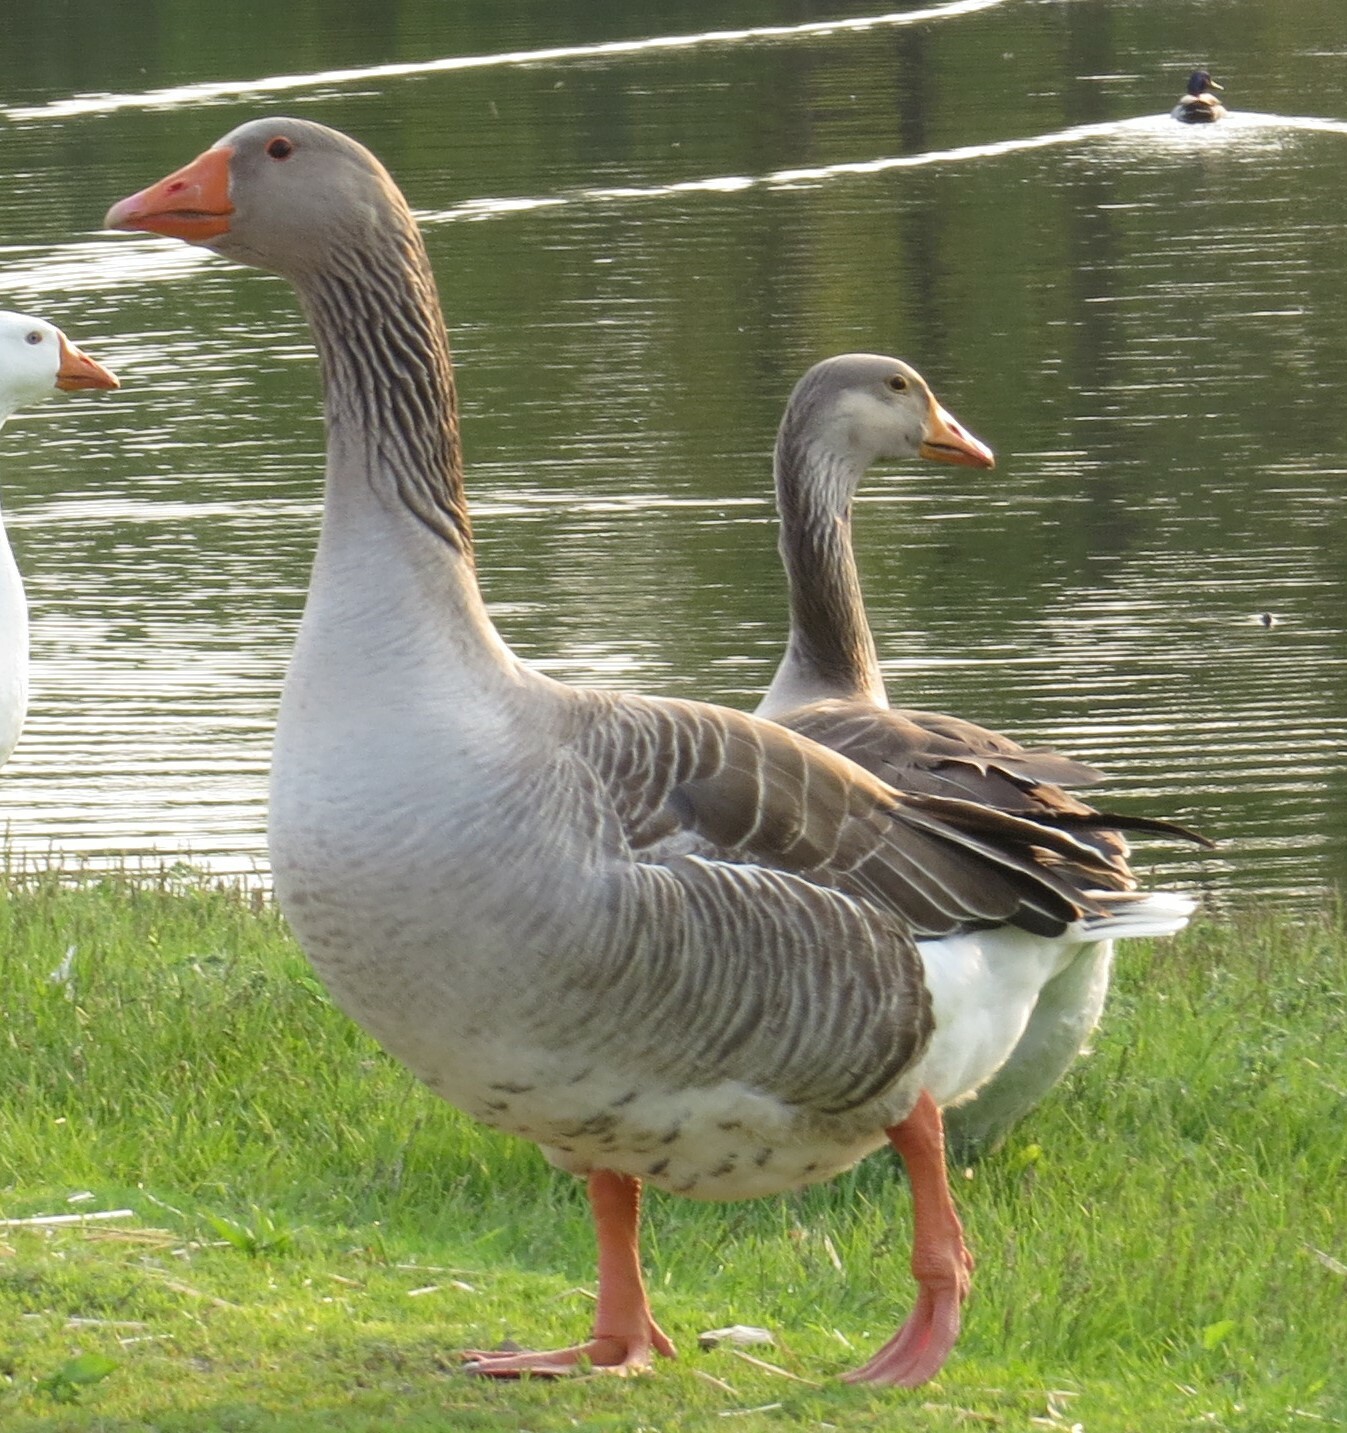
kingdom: Animalia
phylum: Chordata
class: Aves
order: Anseriformes
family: Anatidae
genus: Anser
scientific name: Anser anser
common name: Greylag goose
